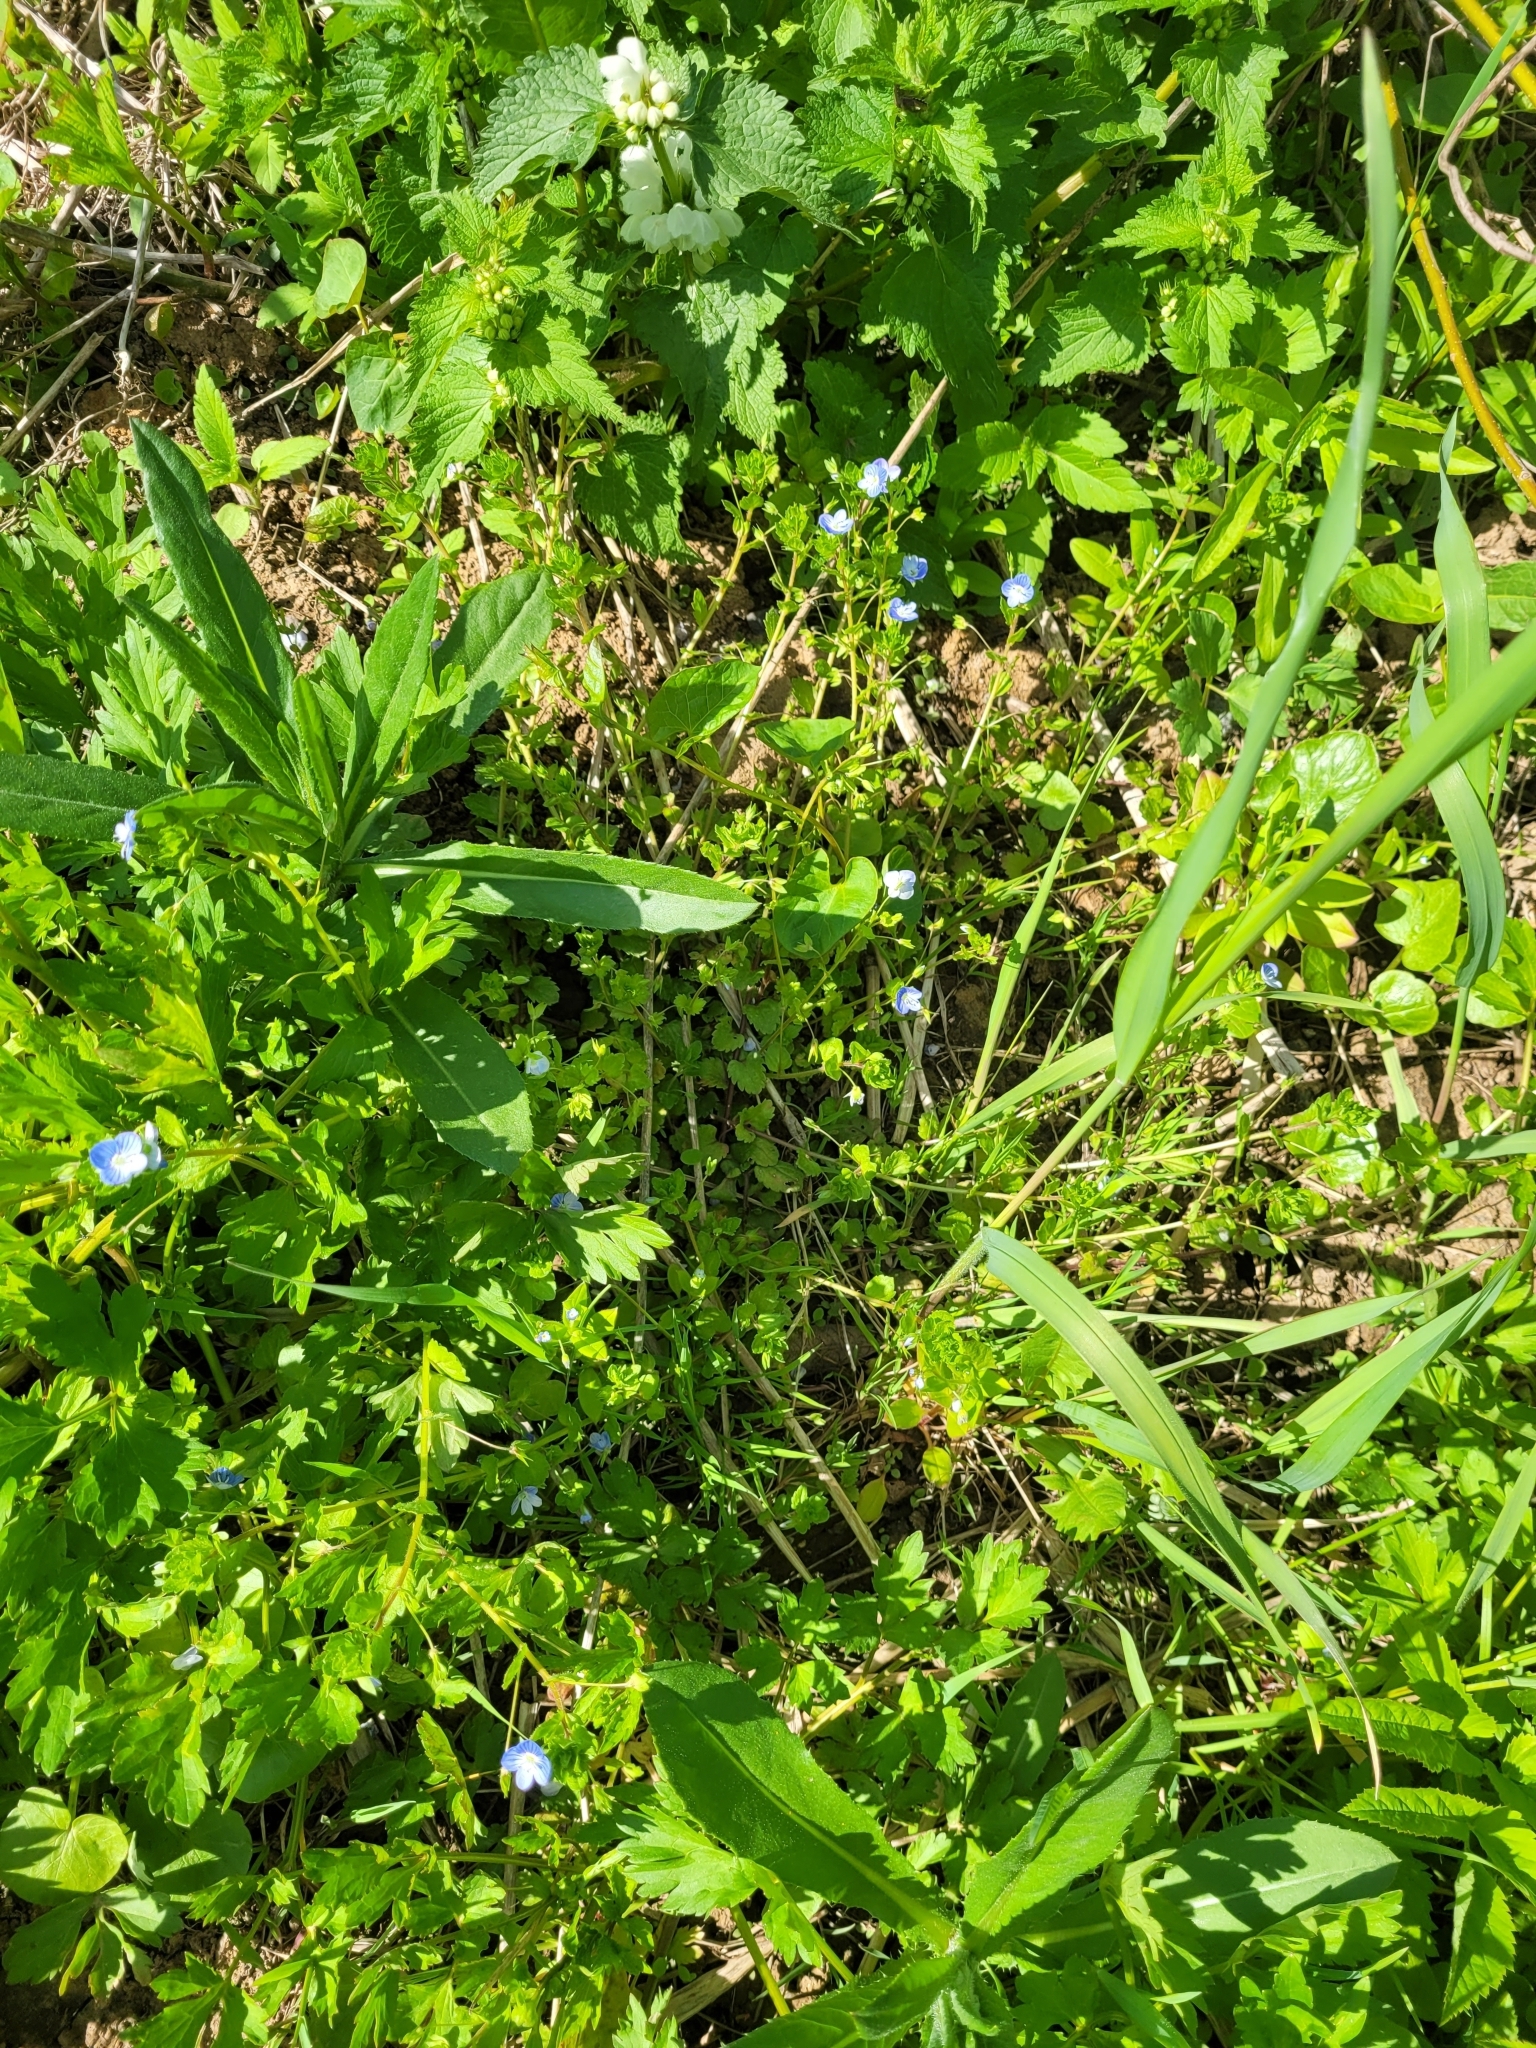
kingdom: Plantae
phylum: Tracheophyta
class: Magnoliopsida
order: Lamiales
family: Plantaginaceae
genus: Veronica
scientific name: Veronica persica
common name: Common field-speedwell
